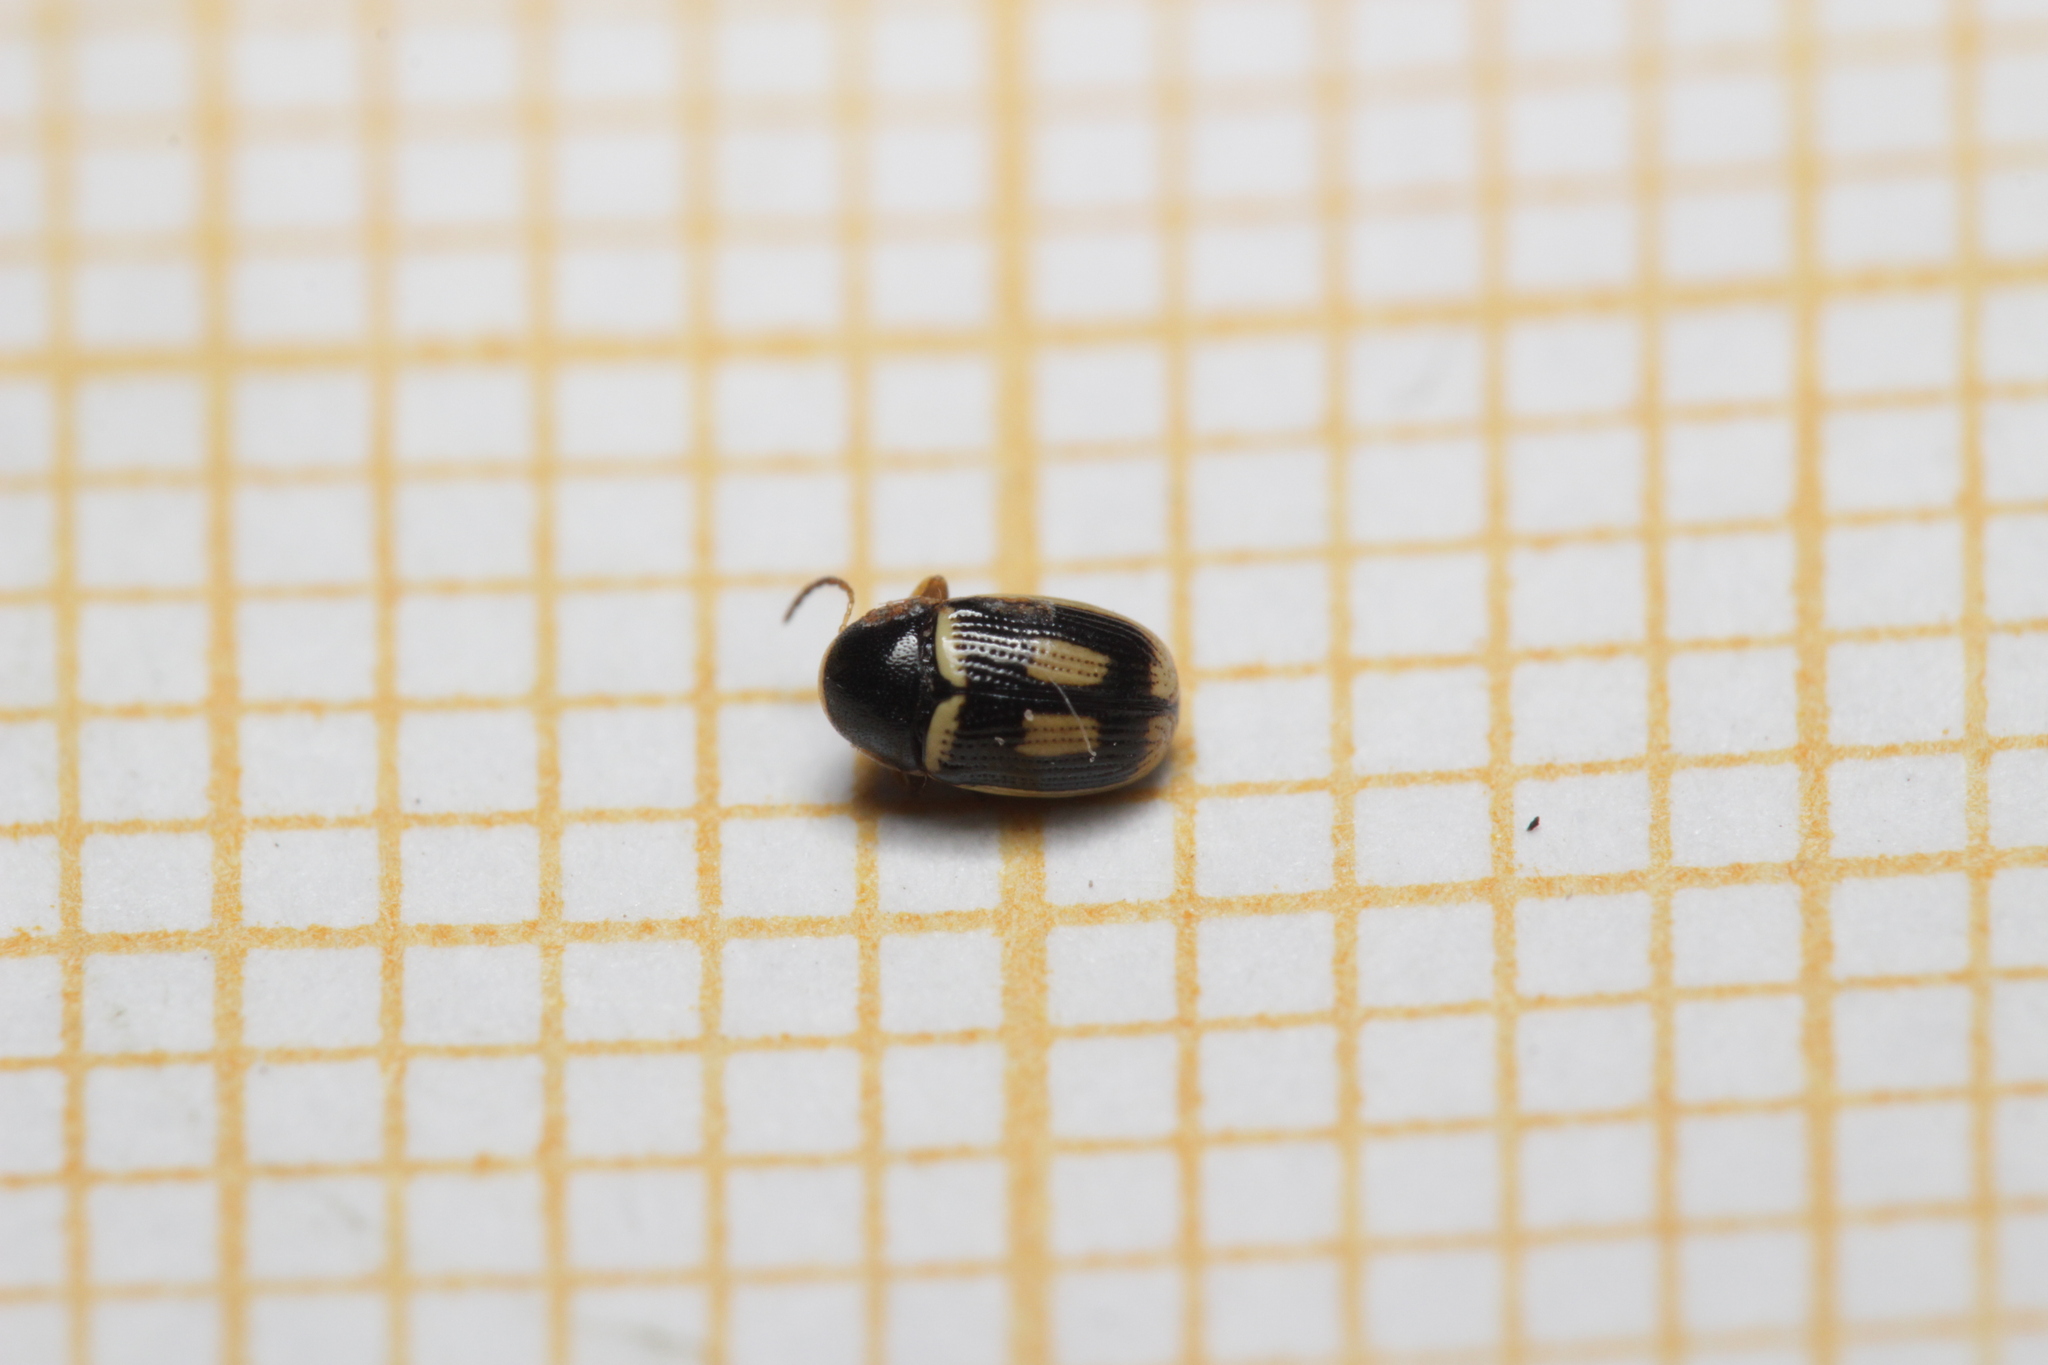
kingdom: Animalia
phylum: Arthropoda
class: Insecta
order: Coleoptera
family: Chrysomelidae
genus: Cryptocephalus
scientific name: Cryptocephalus elegantulus
